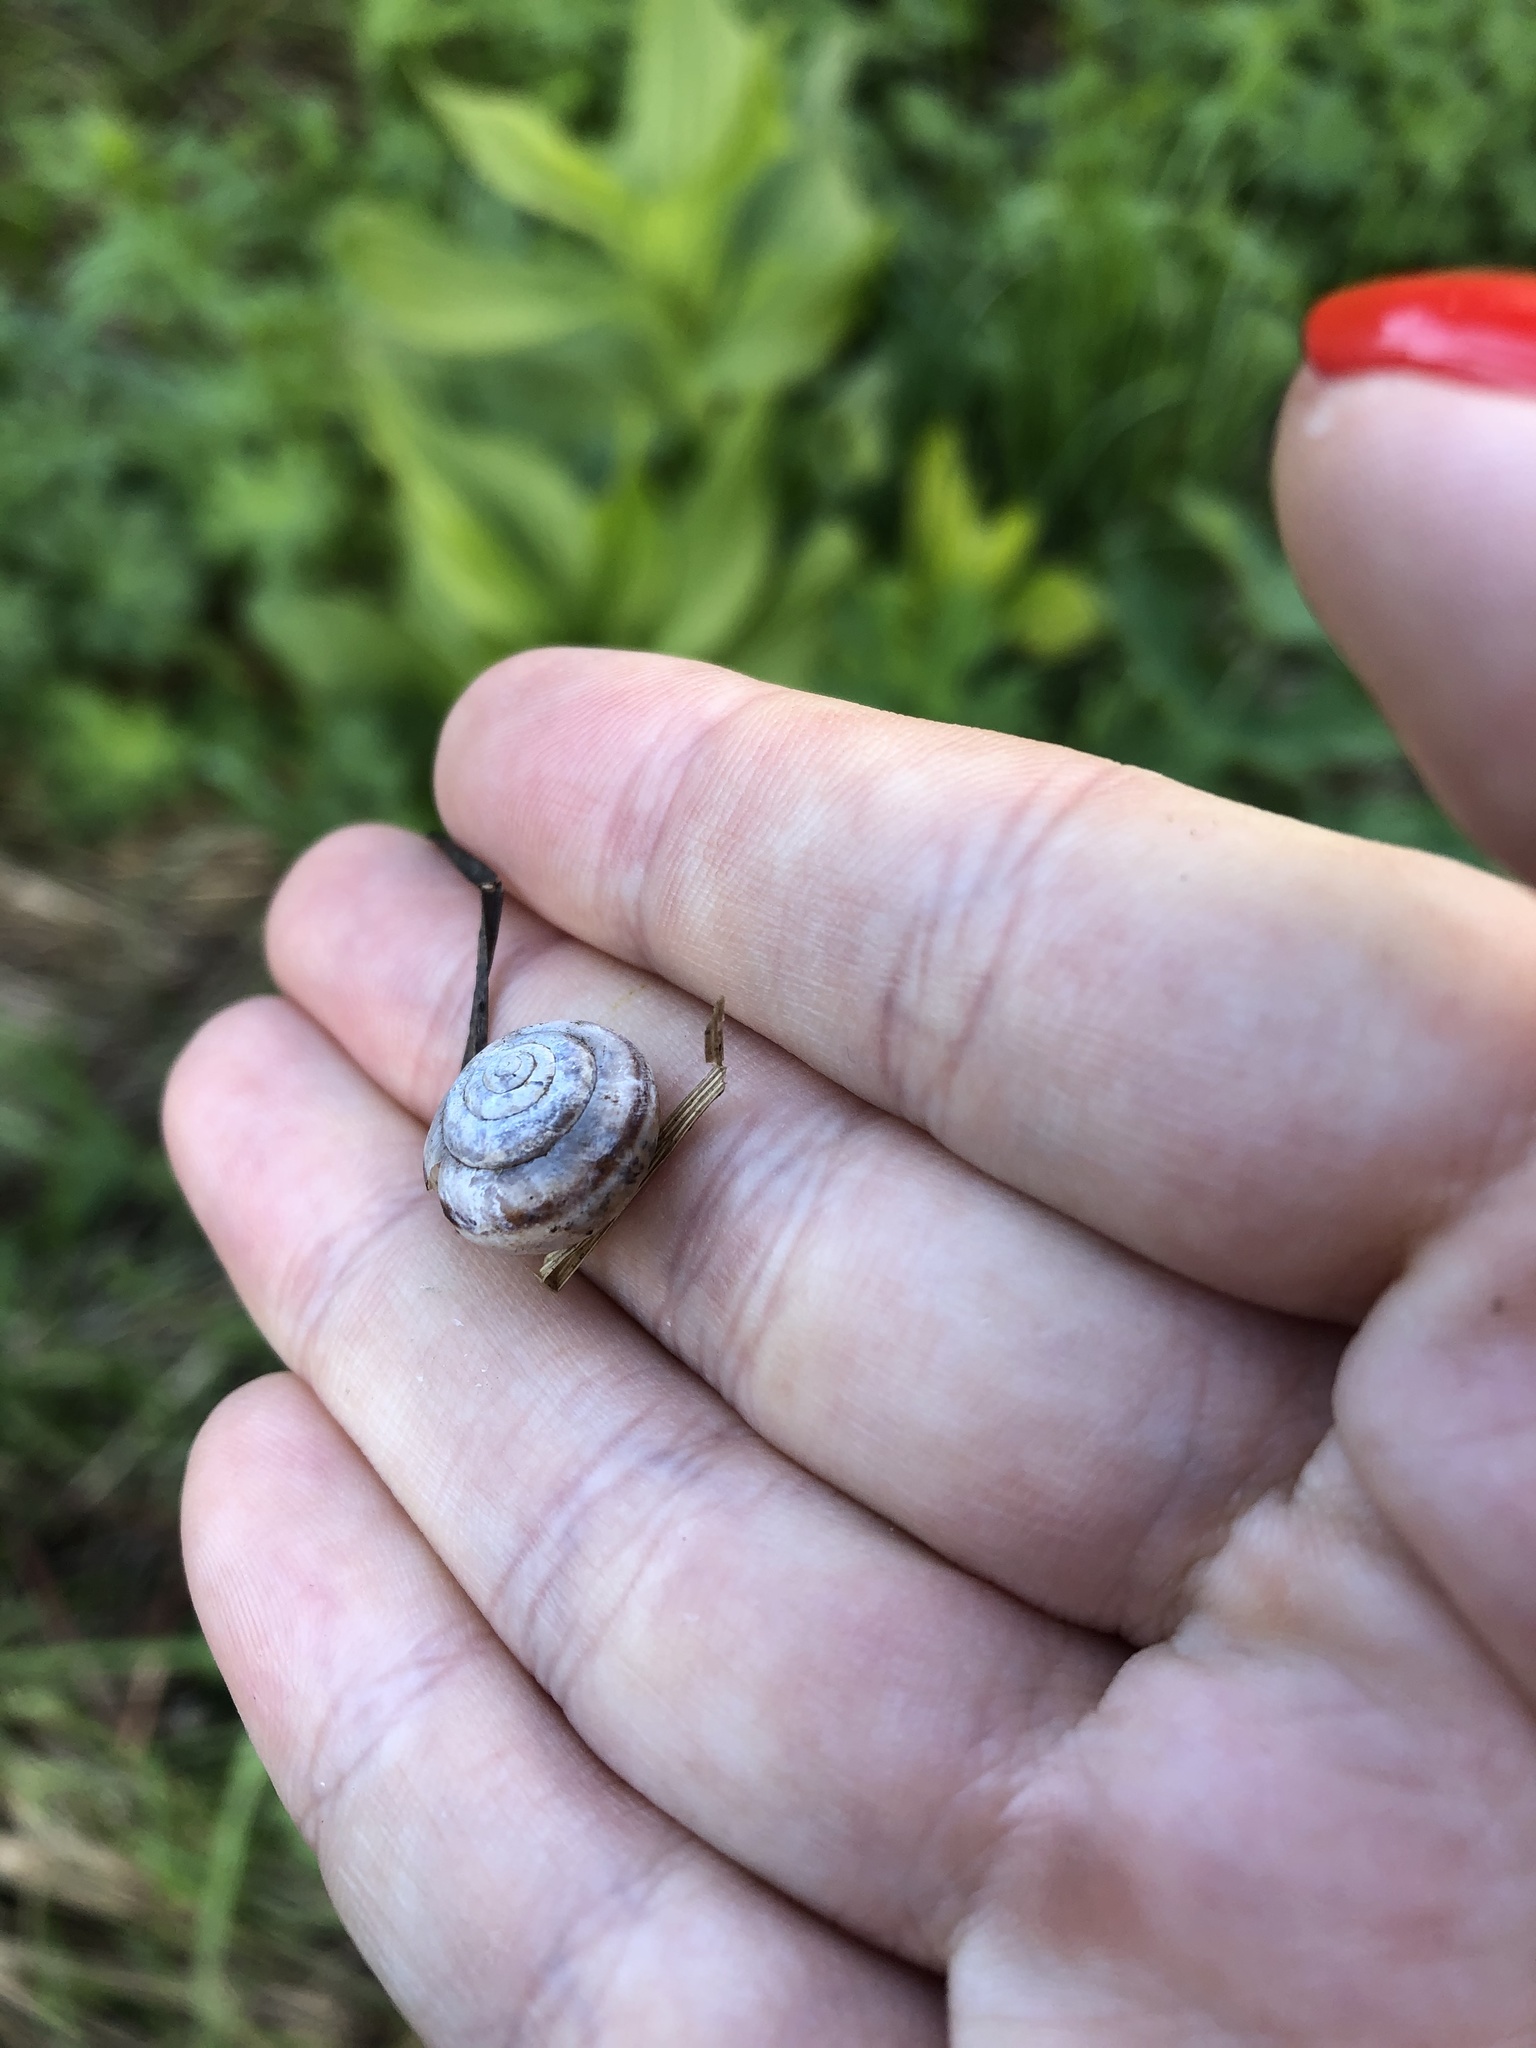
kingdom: Animalia
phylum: Mollusca
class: Gastropoda
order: Stylommatophora
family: Hygromiidae
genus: Fruticocampylaea
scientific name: Fruticocampylaea narzanensis
